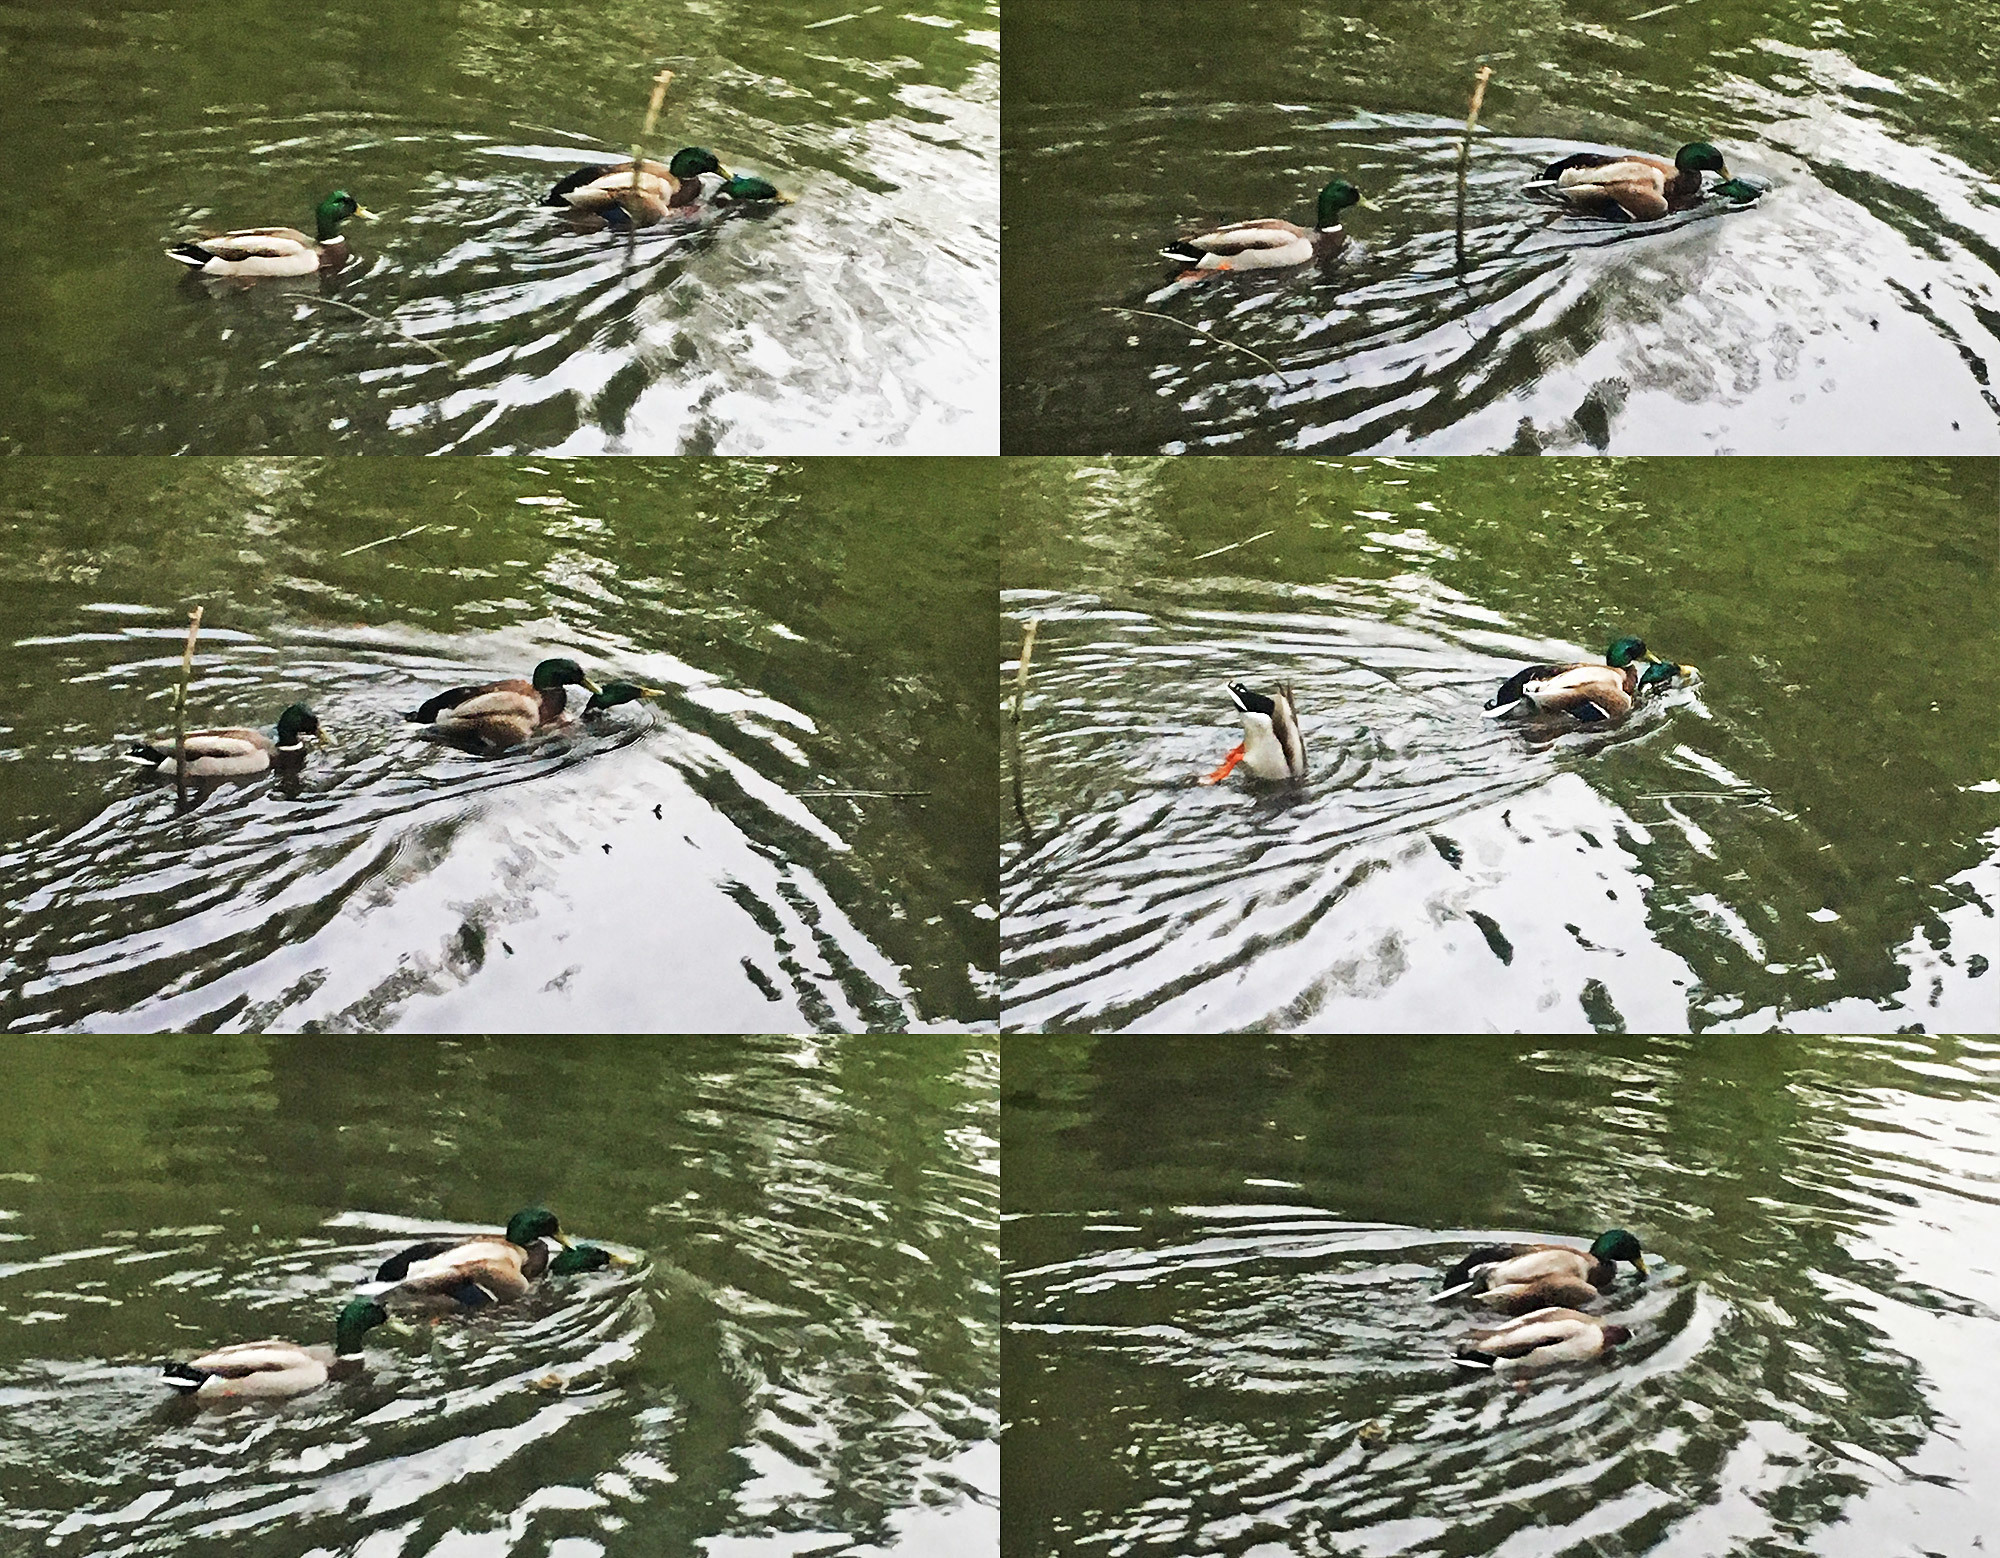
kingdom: Animalia
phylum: Chordata
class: Aves
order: Anseriformes
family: Anatidae
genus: Anas
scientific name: Anas platyrhynchos
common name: Mallard
